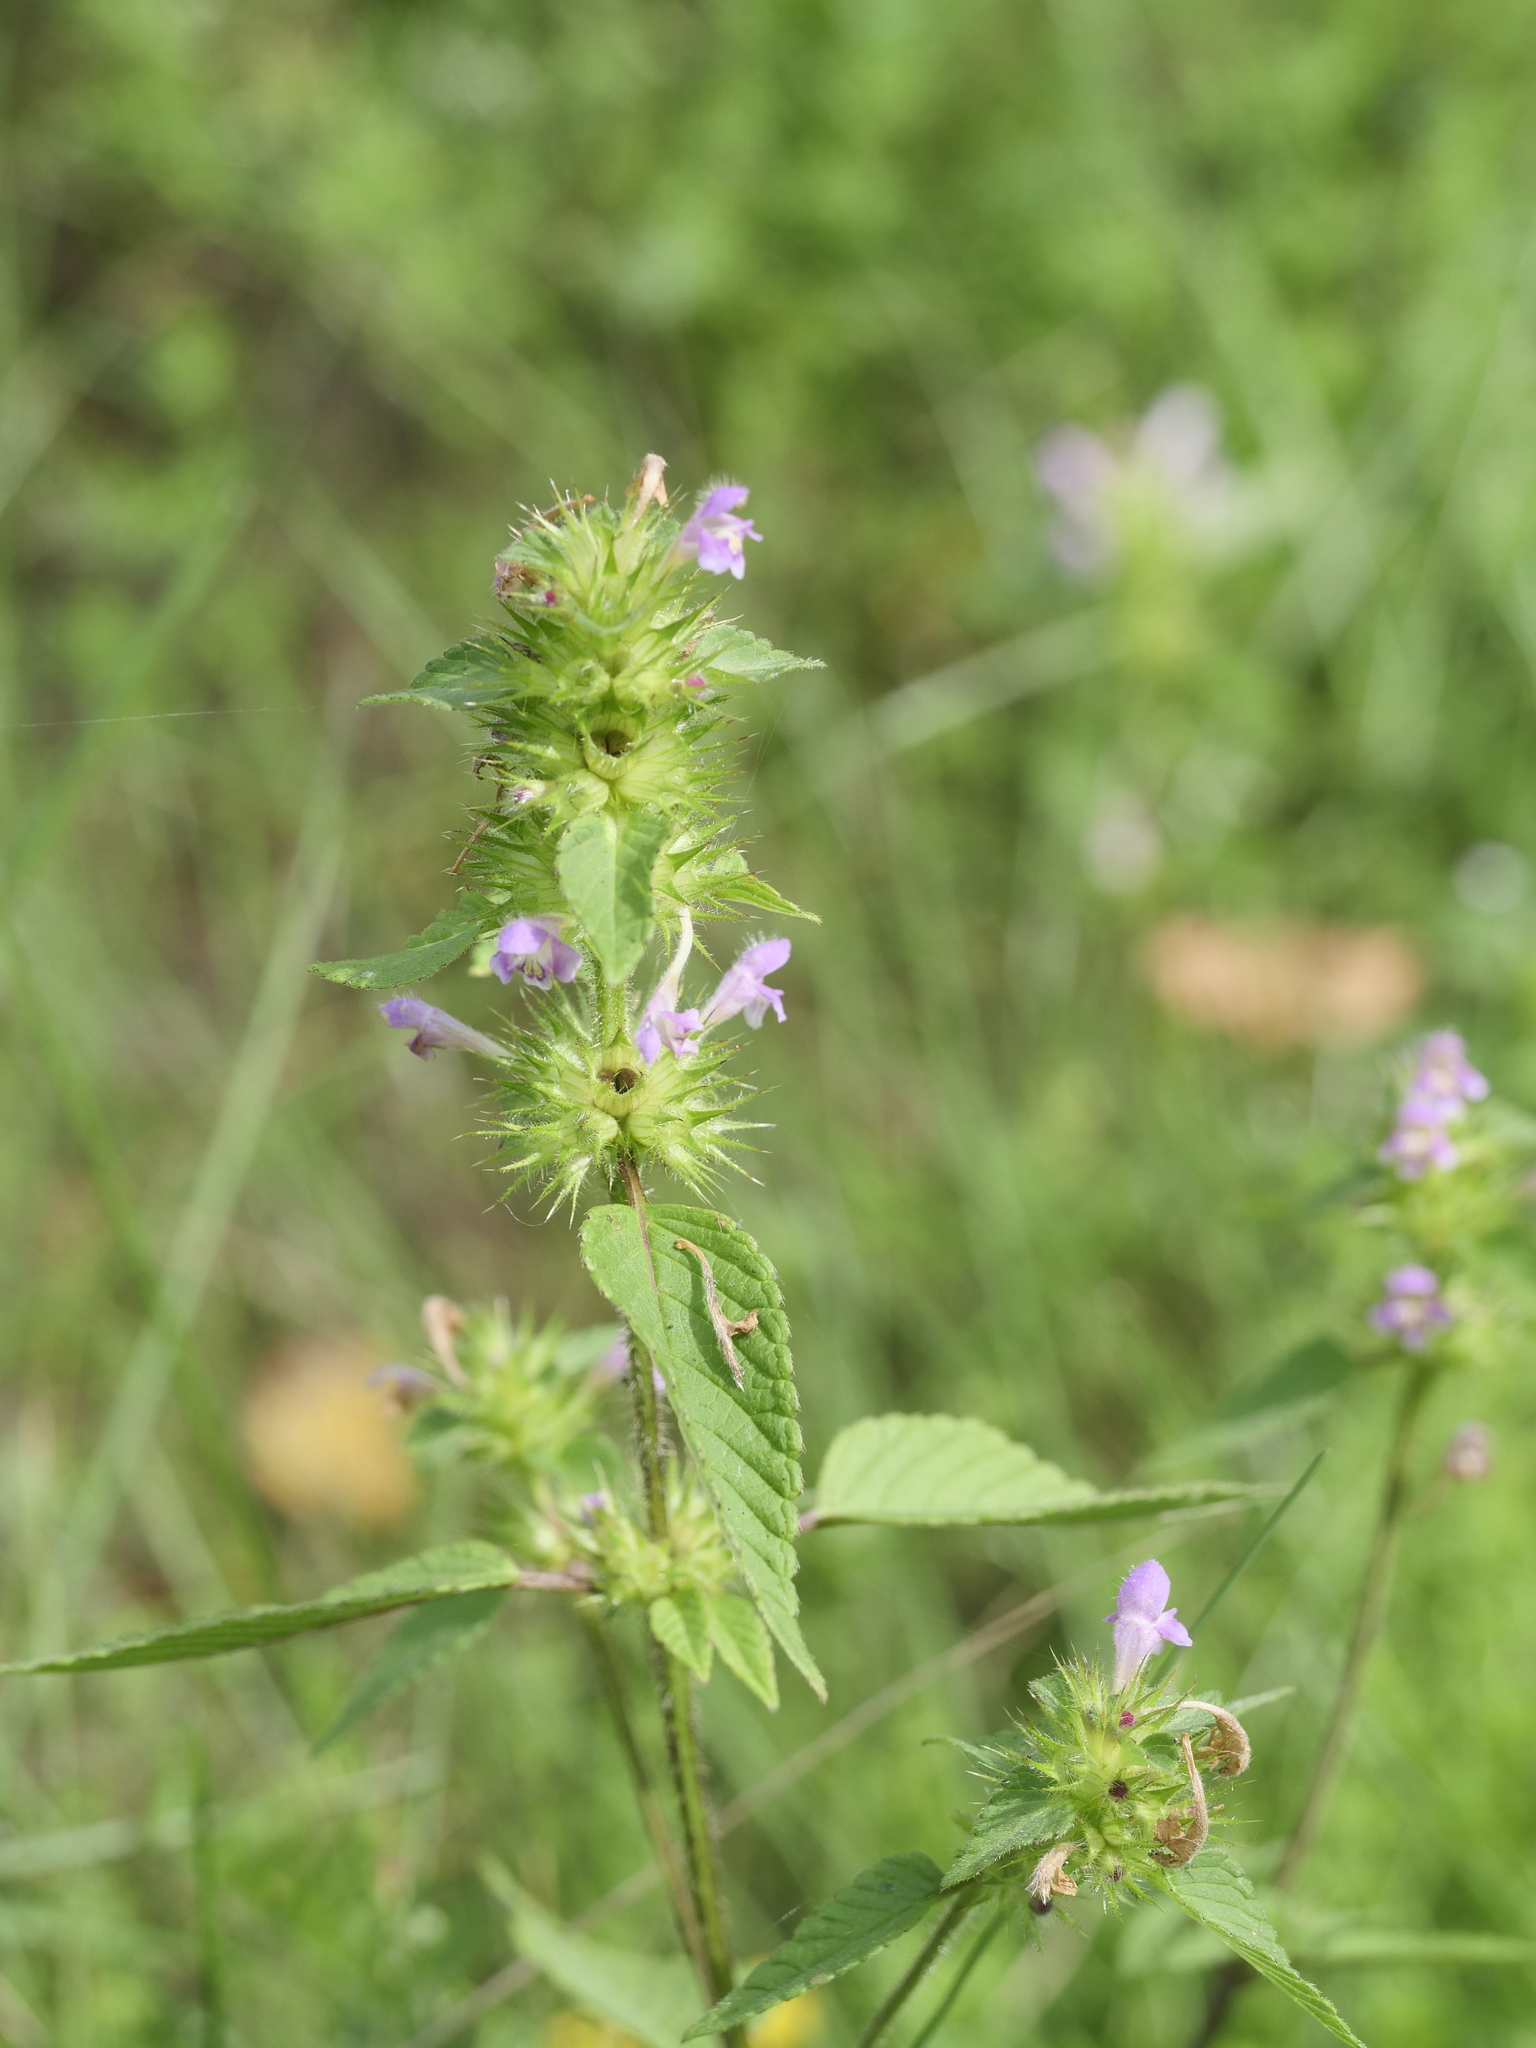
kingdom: Plantae
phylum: Tracheophyta
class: Magnoliopsida
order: Lamiales
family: Lamiaceae
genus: Galeopsis
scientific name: Galeopsis bifida
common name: Bifid hemp-nettle
